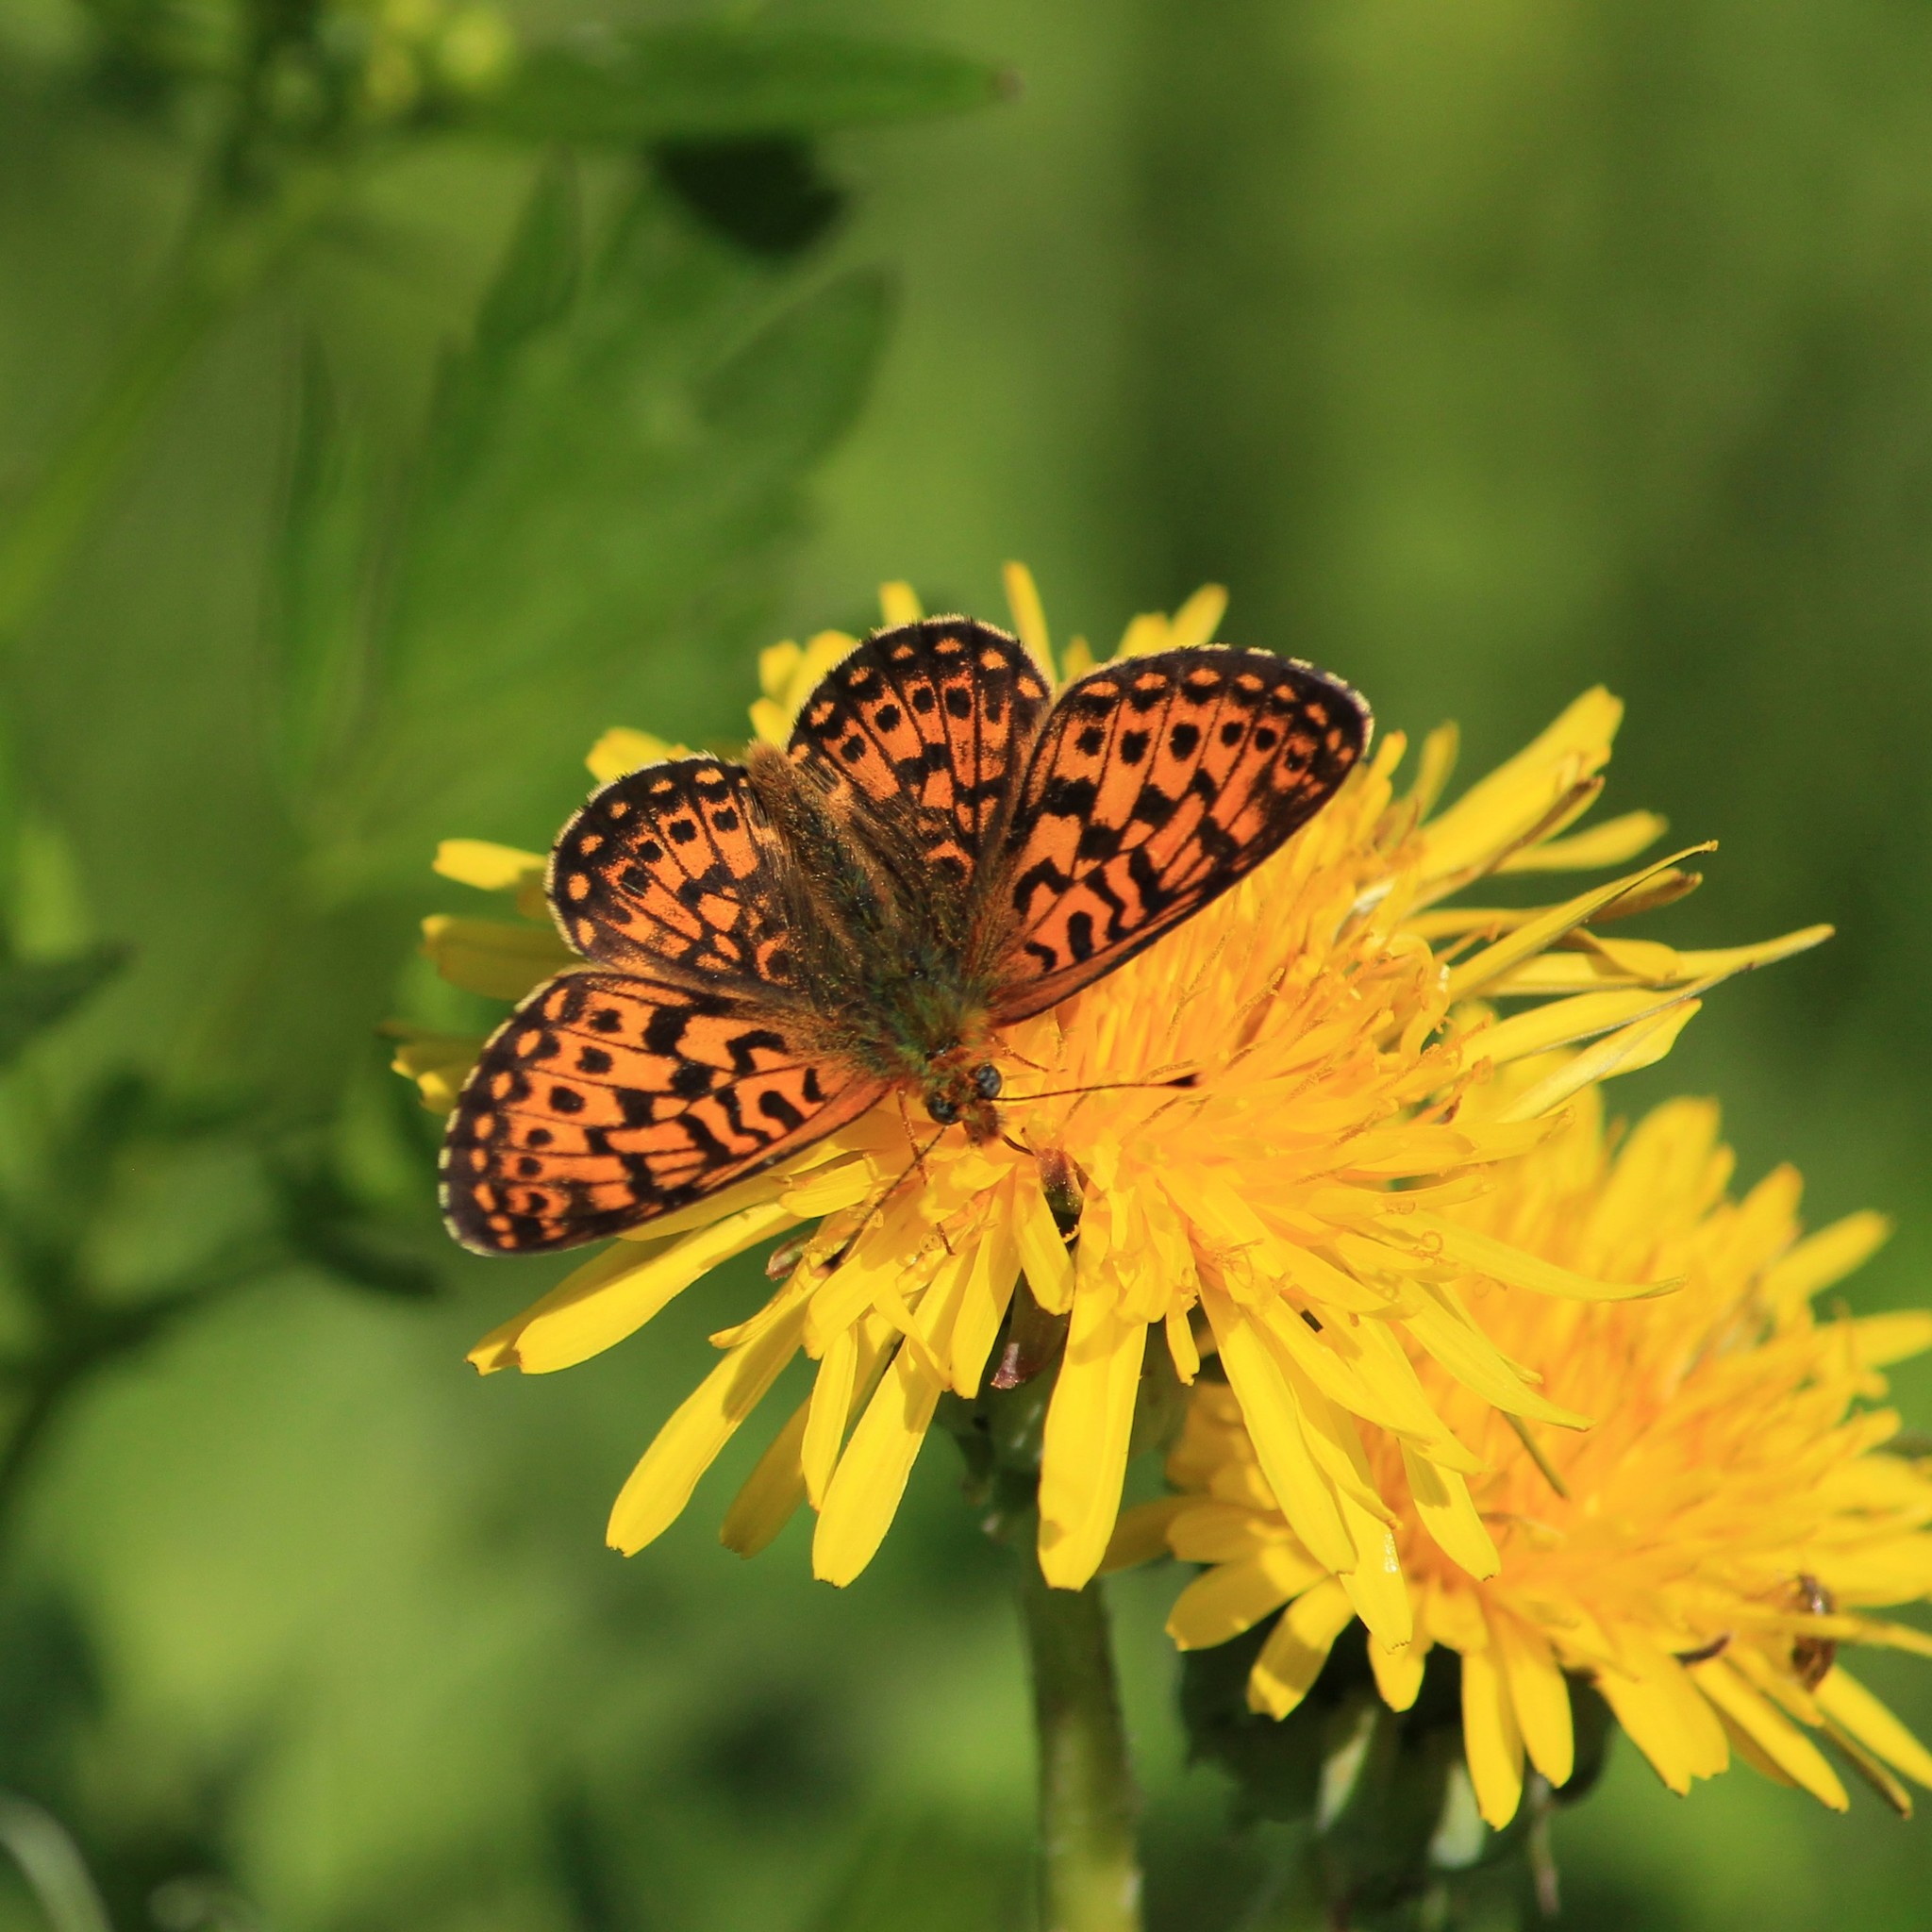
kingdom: Animalia
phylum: Arthropoda
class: Insecta
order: Lepidoptera
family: Nymphalidae
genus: Clossiana
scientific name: Clossiana euphrosyne
